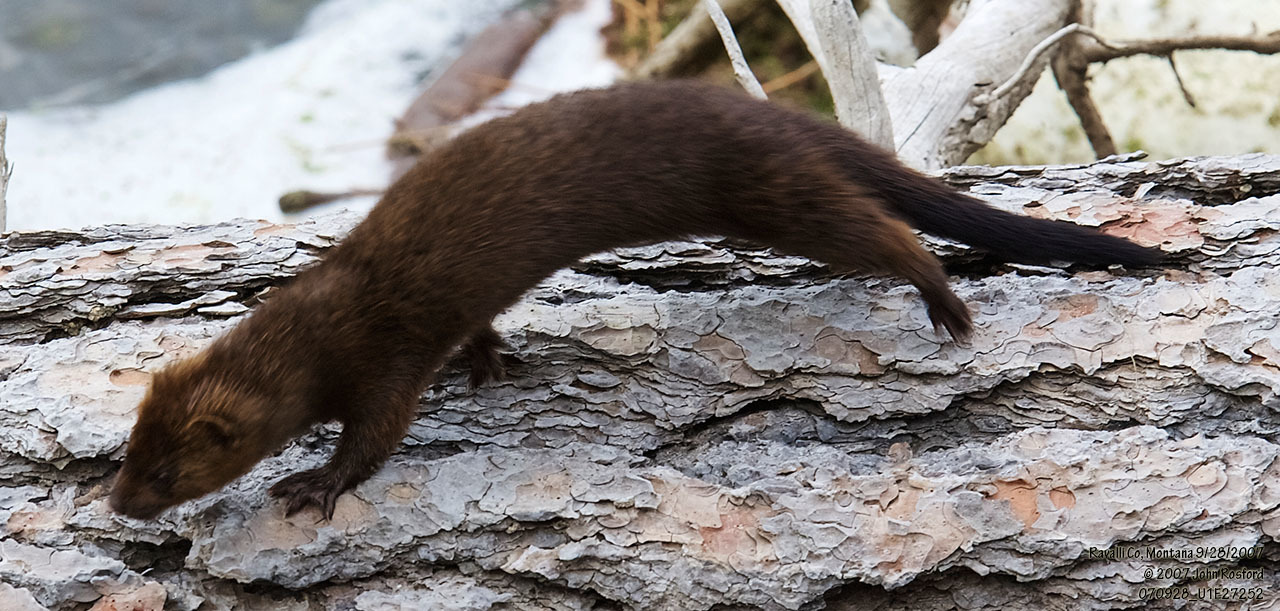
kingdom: Animalia
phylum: Chordata
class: Mammalia
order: Carnivora
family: Mustelidae
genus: Mustela
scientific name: Mustela
